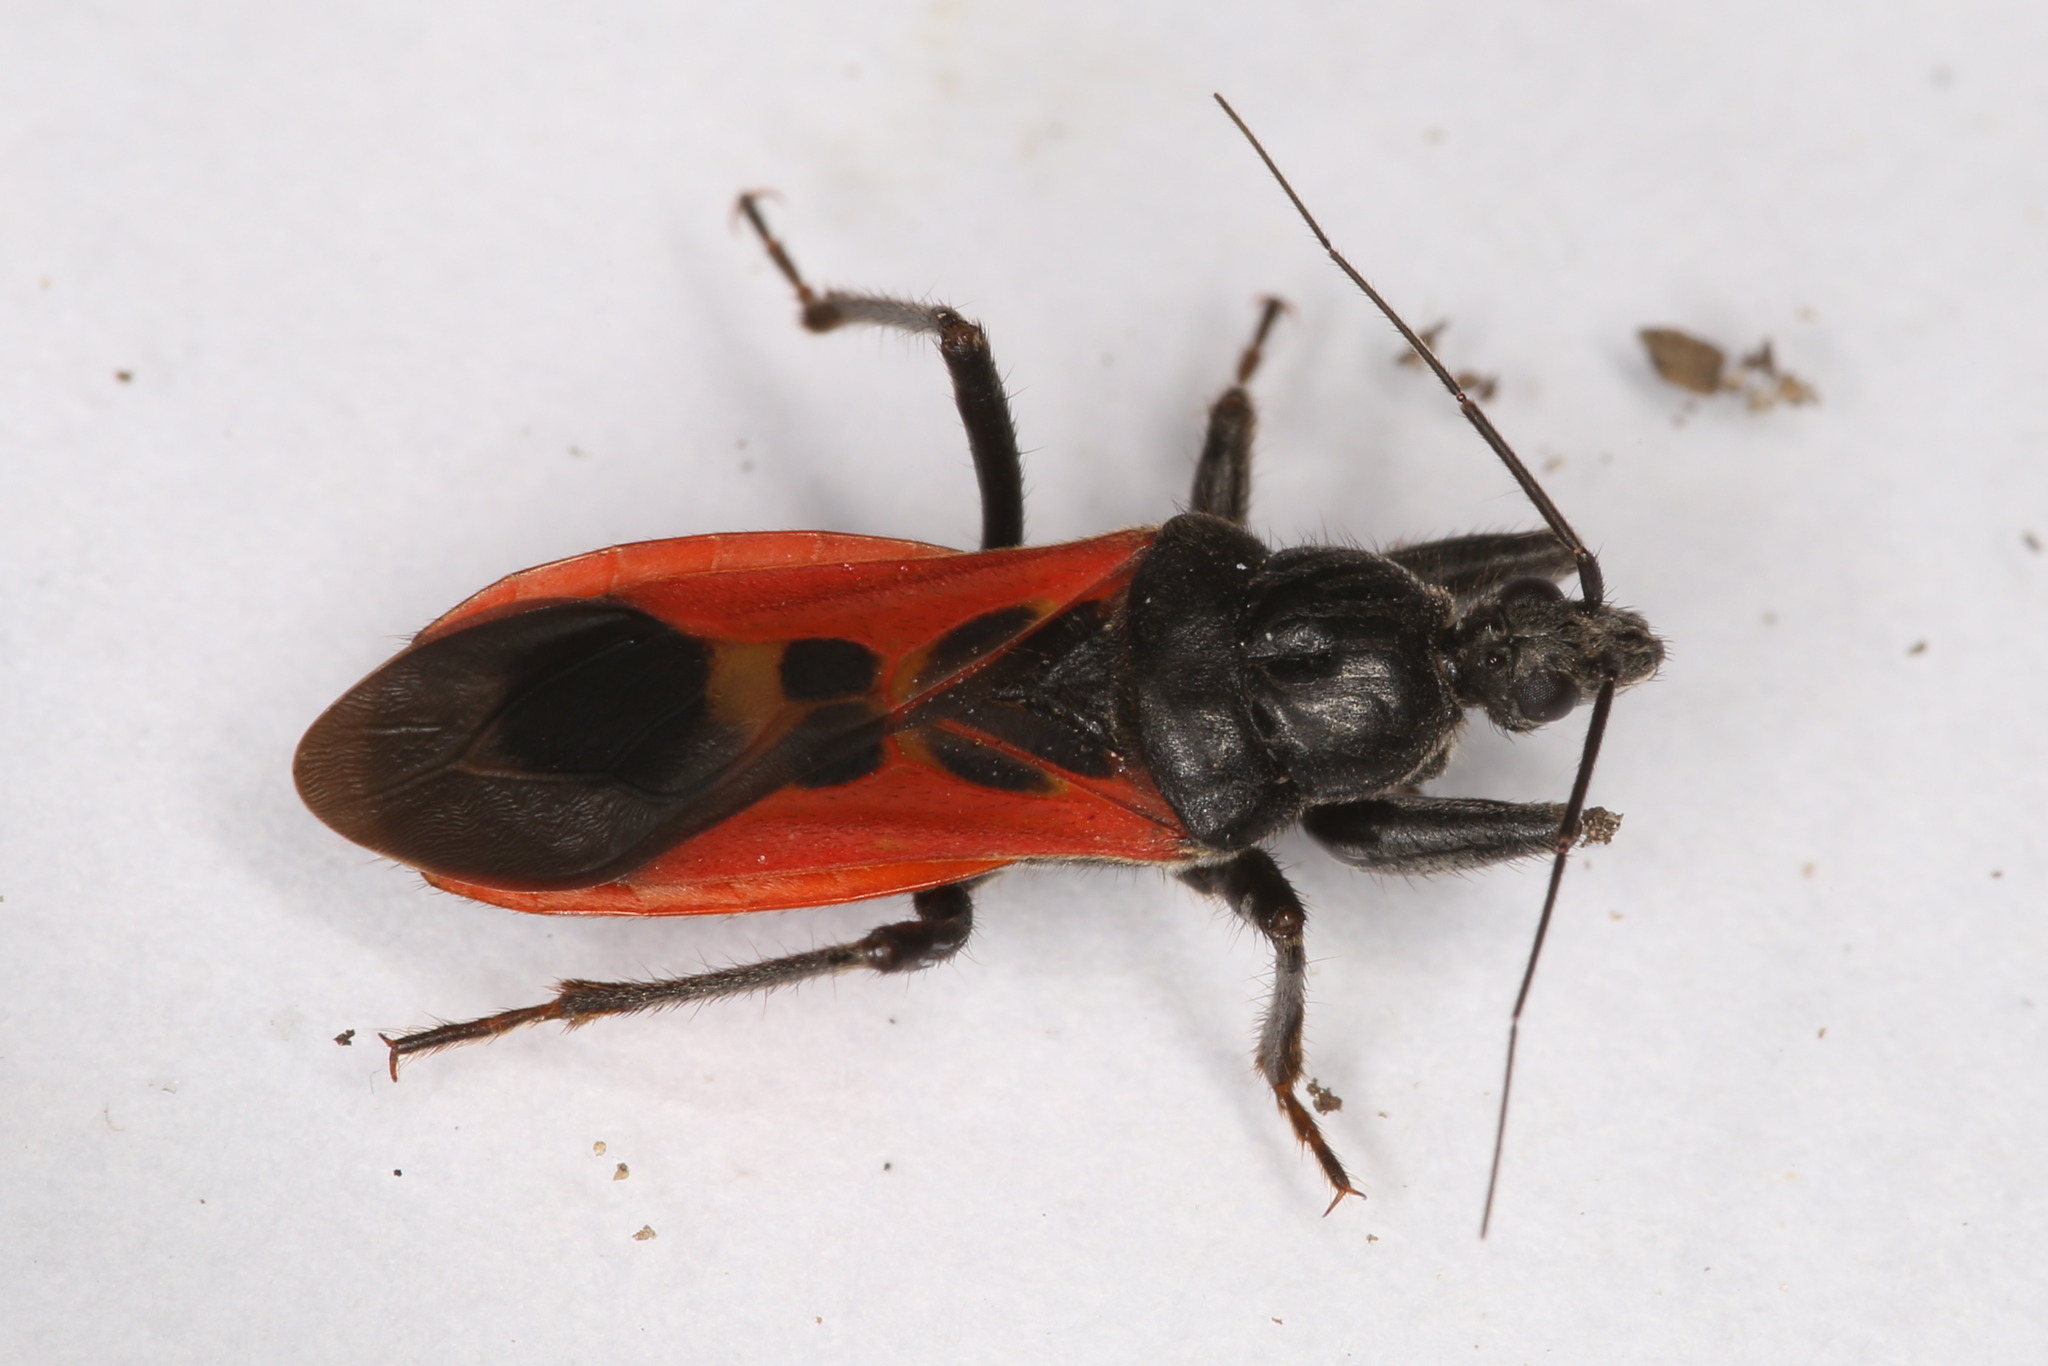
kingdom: Animalia
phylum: Arthropoda
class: Insecta
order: Hemiptera
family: Reduviidae
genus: Peirates
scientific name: Peirates hybridus
